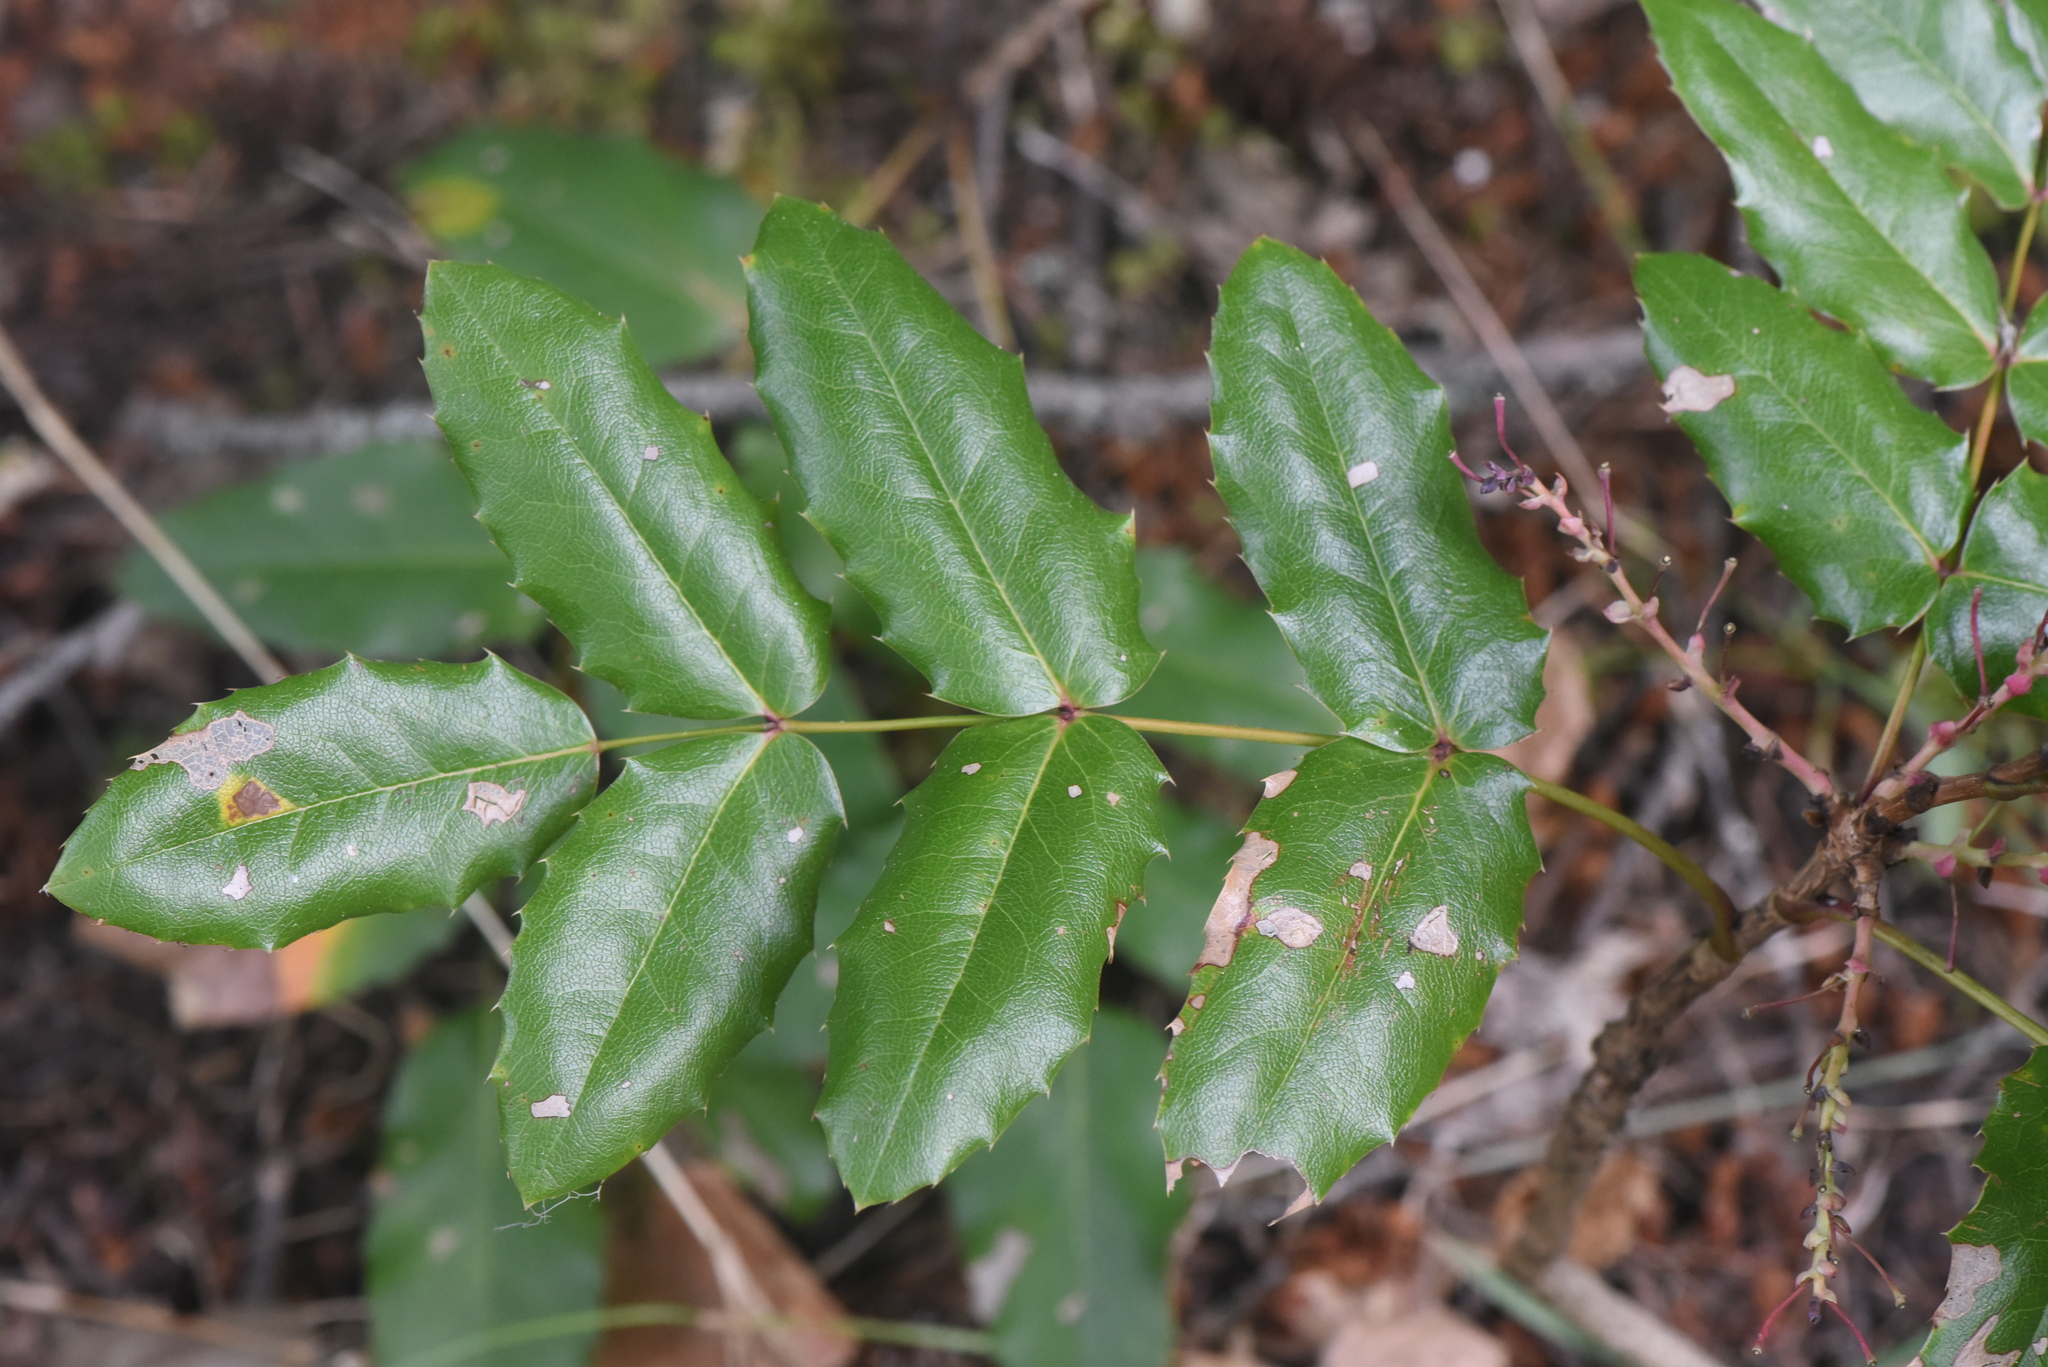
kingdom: Plantae
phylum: Tracheophyta
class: Magnoliopsida
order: Ranunculales
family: Berberidaceae
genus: Mahonia
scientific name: Mahonia aquifolium
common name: Oregon-grape
